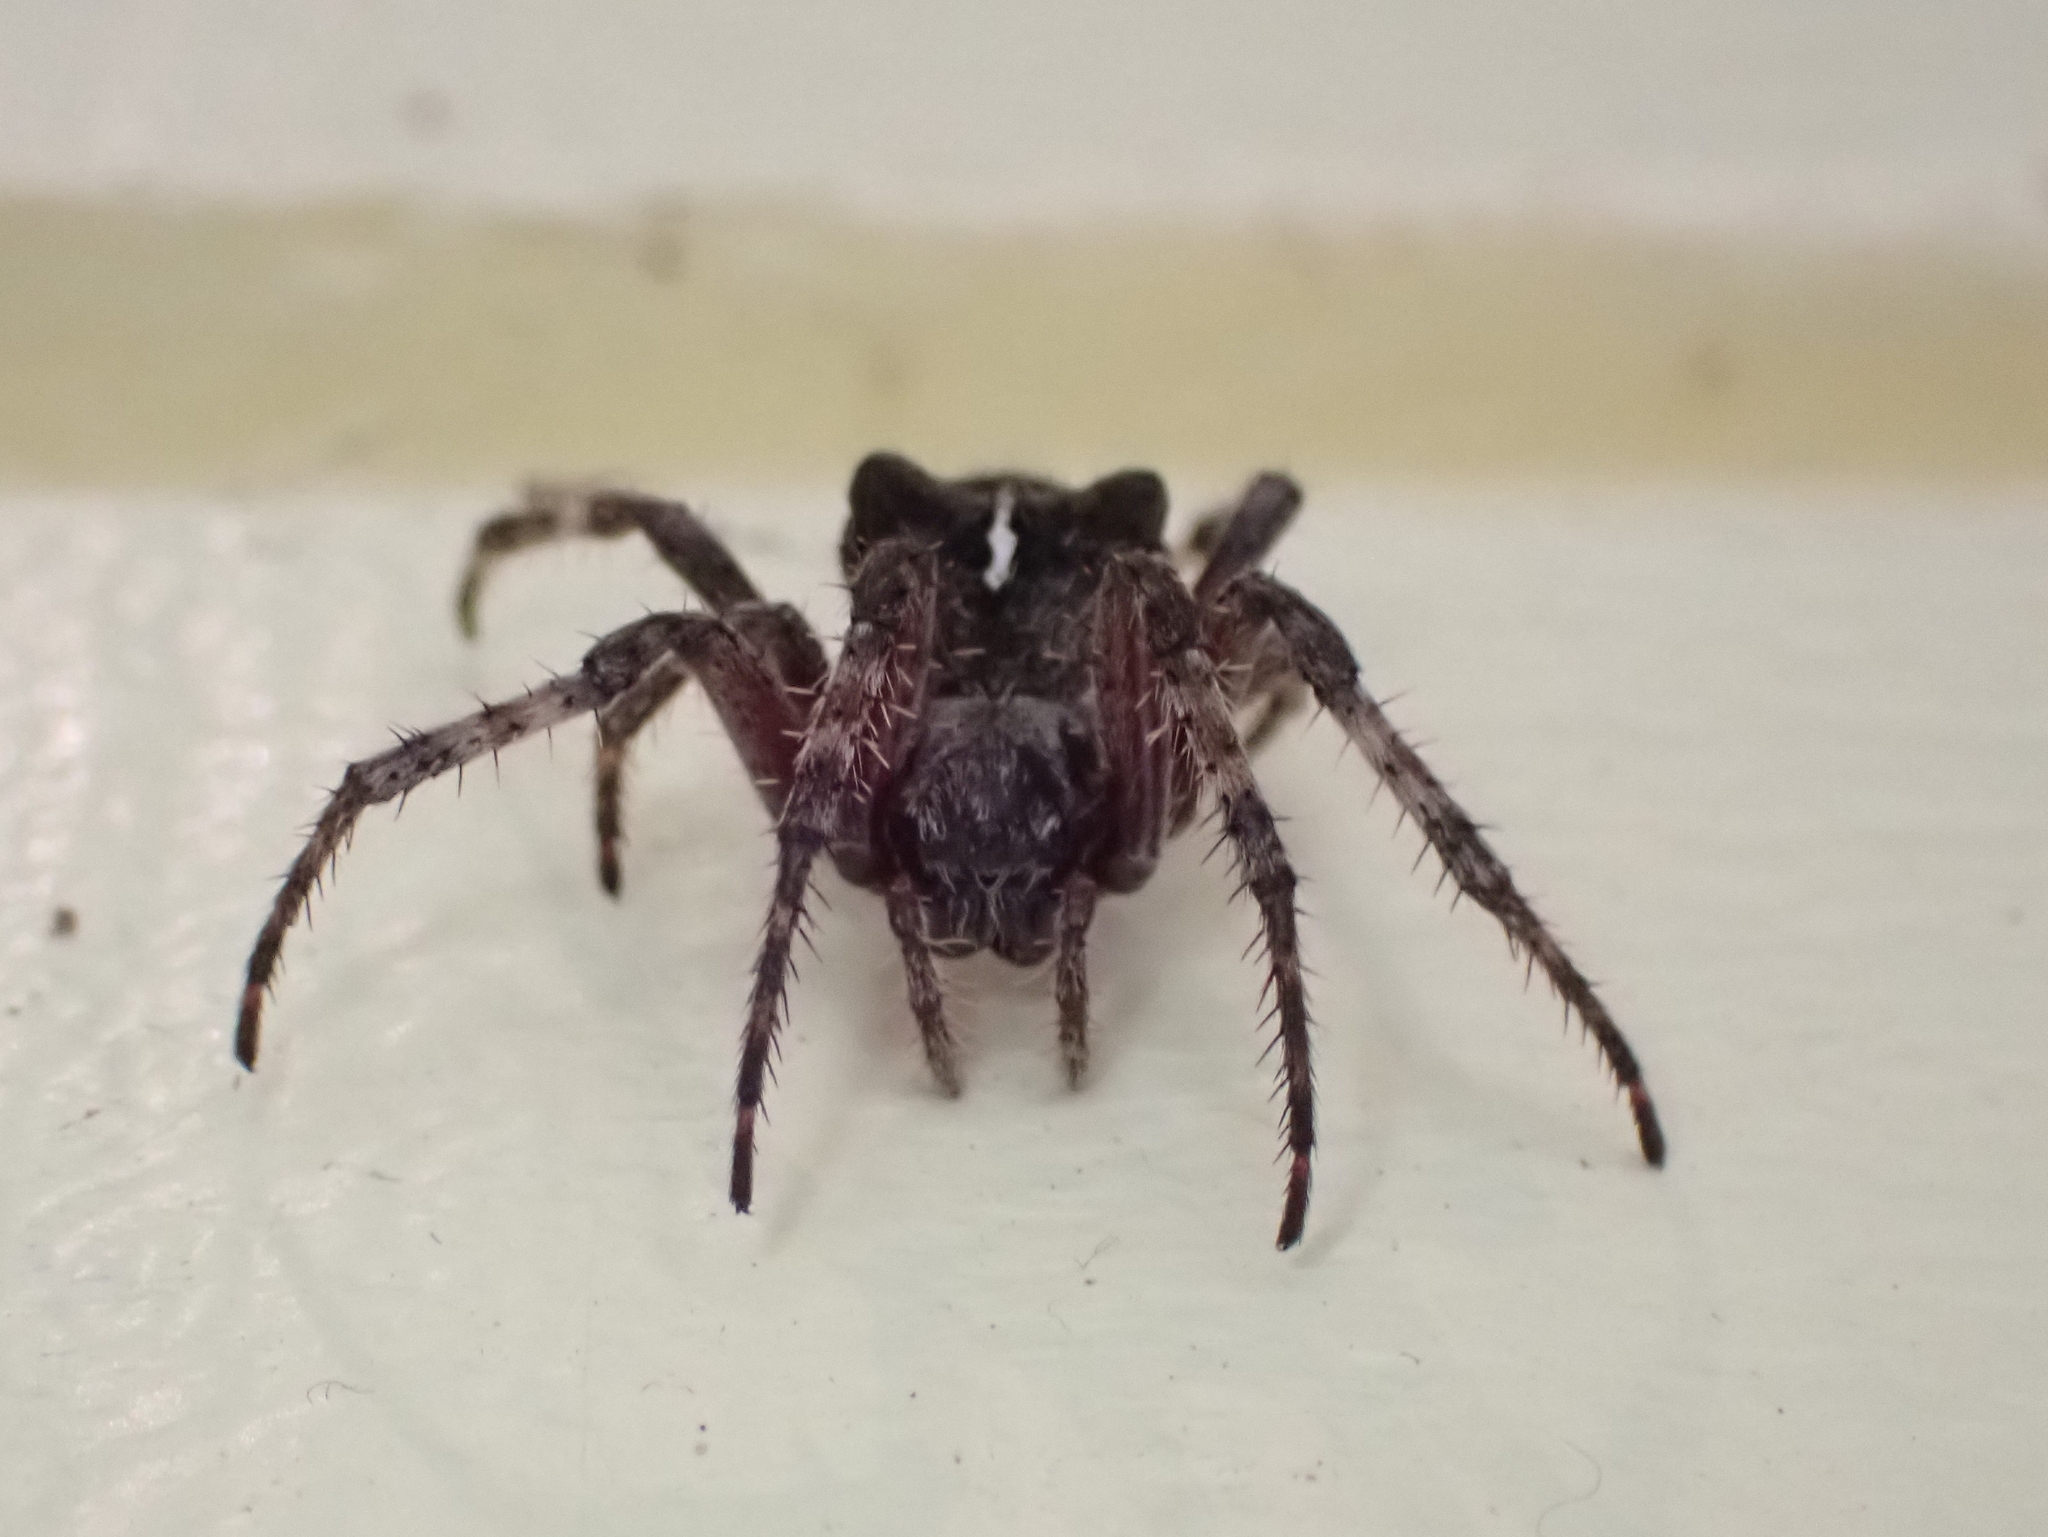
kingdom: Animalia
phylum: Arthropoda
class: Arachnida
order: Araneae
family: Araneidae
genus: Araneus
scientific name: Araneus saevus
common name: Fierce orbweaver
